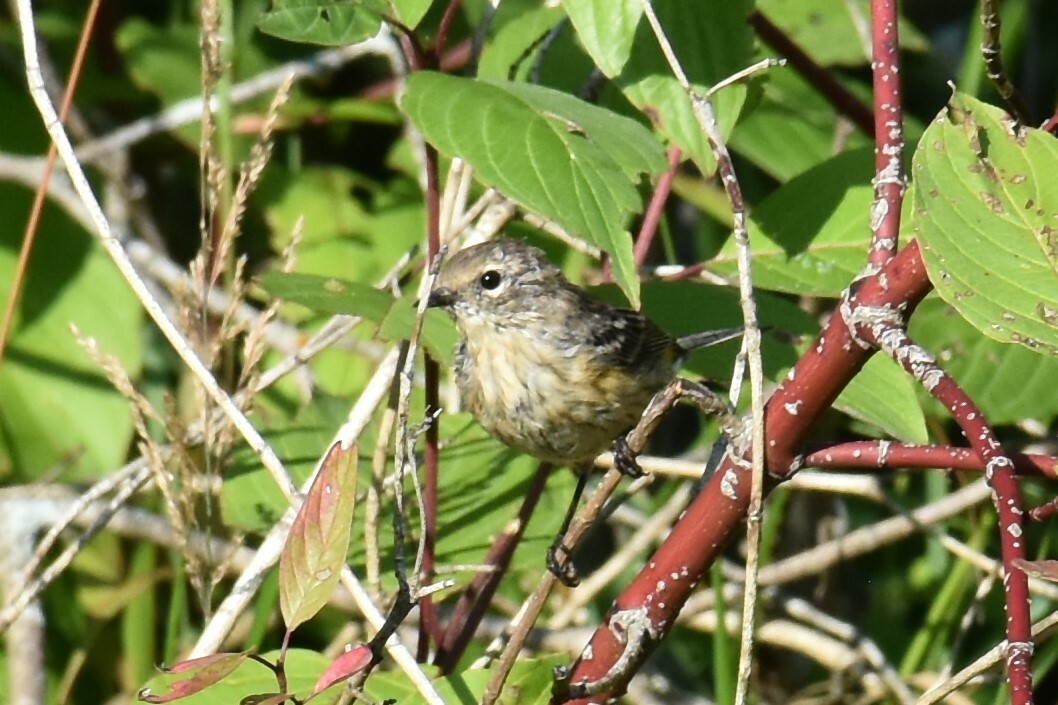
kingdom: Animalia
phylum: Chordata
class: Aves
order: Passeriformes
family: Parulidae
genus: Setophaga
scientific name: Setophaga coronata
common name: Myrtle warbler
